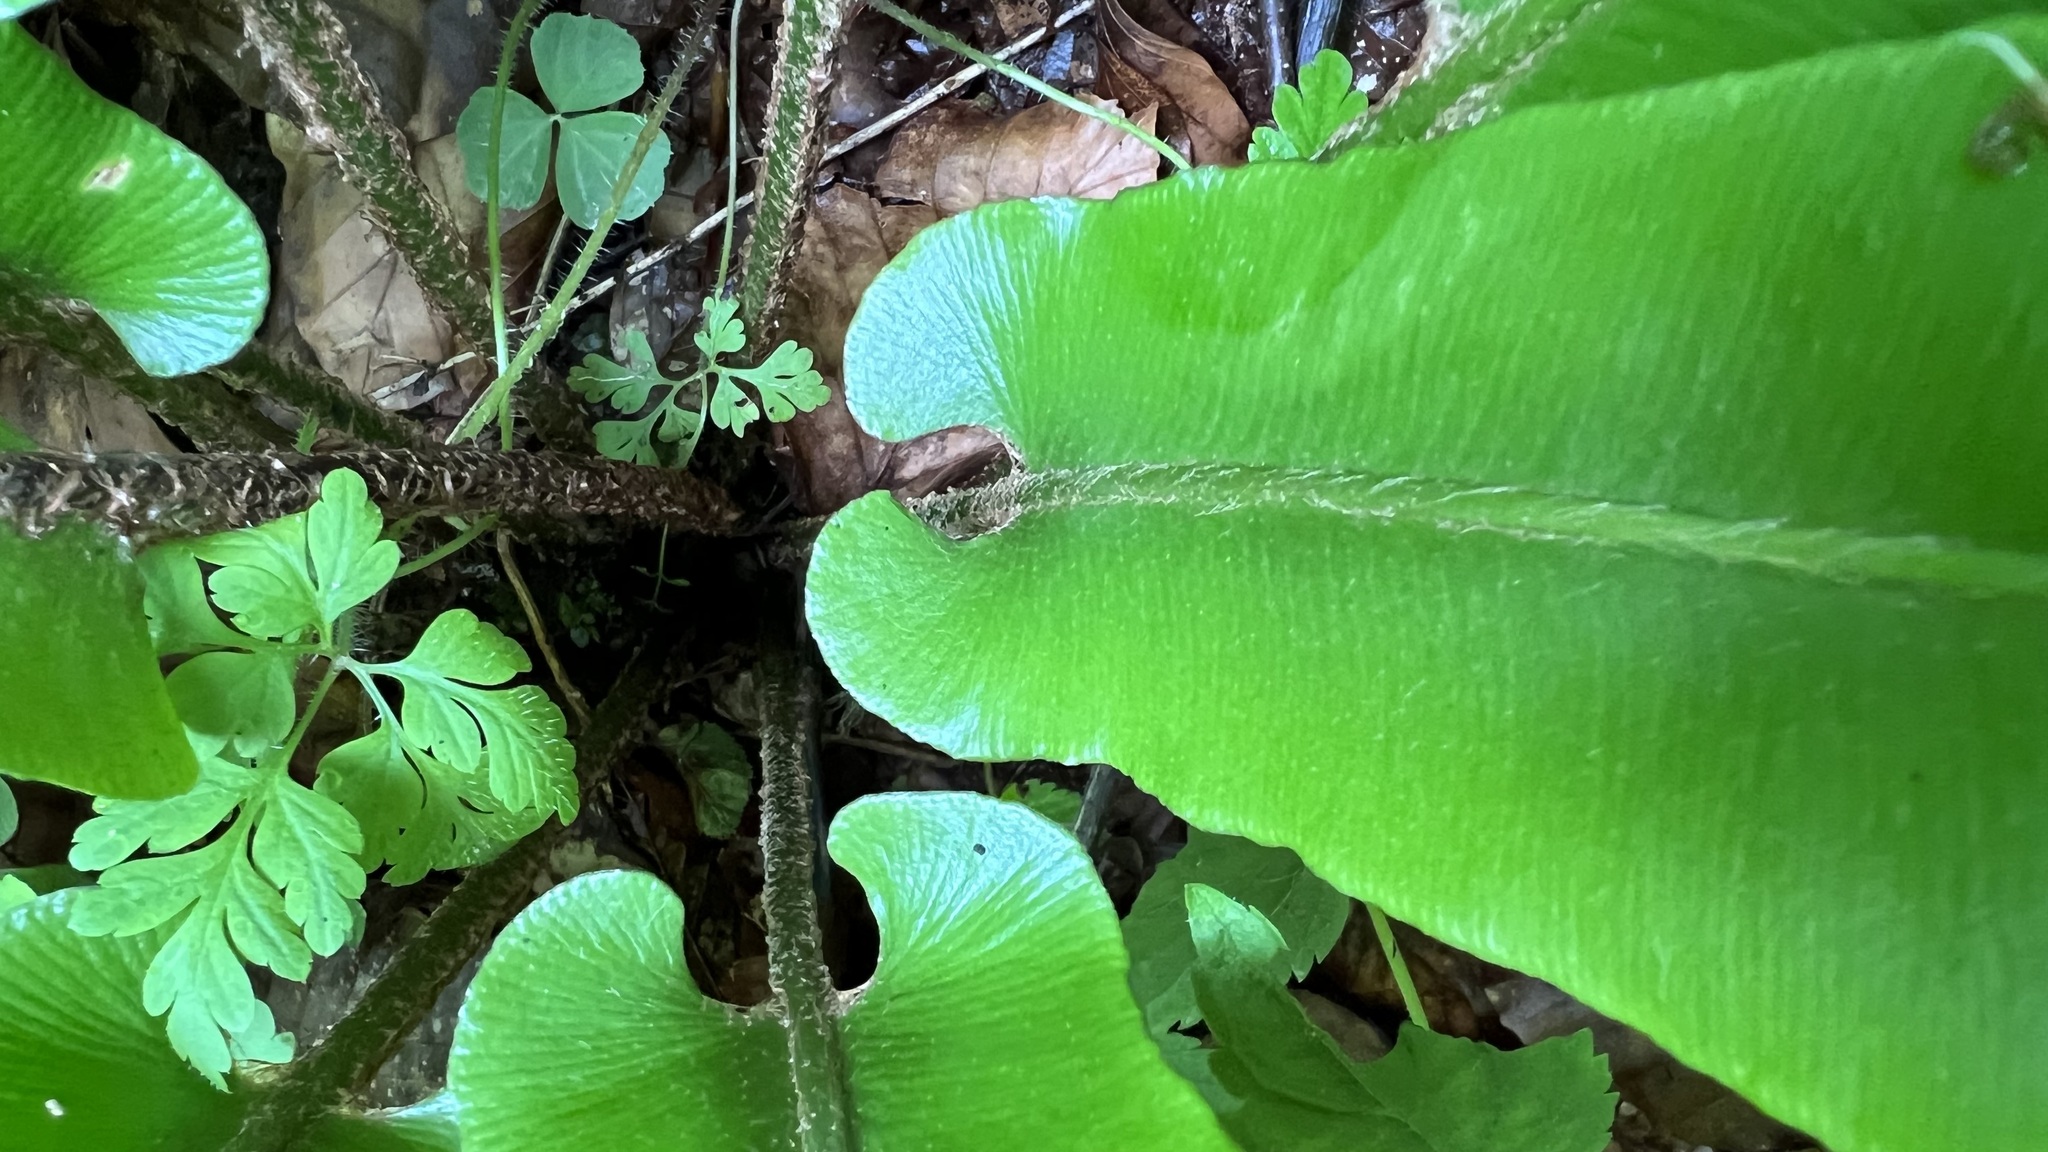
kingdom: Plantae
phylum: Tracheophyta
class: Polypodiopsida
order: Polypodiales
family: Aspleniaceae
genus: Asplenium
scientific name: Asplenium scolopendrium
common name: Hart's-tongue fern
